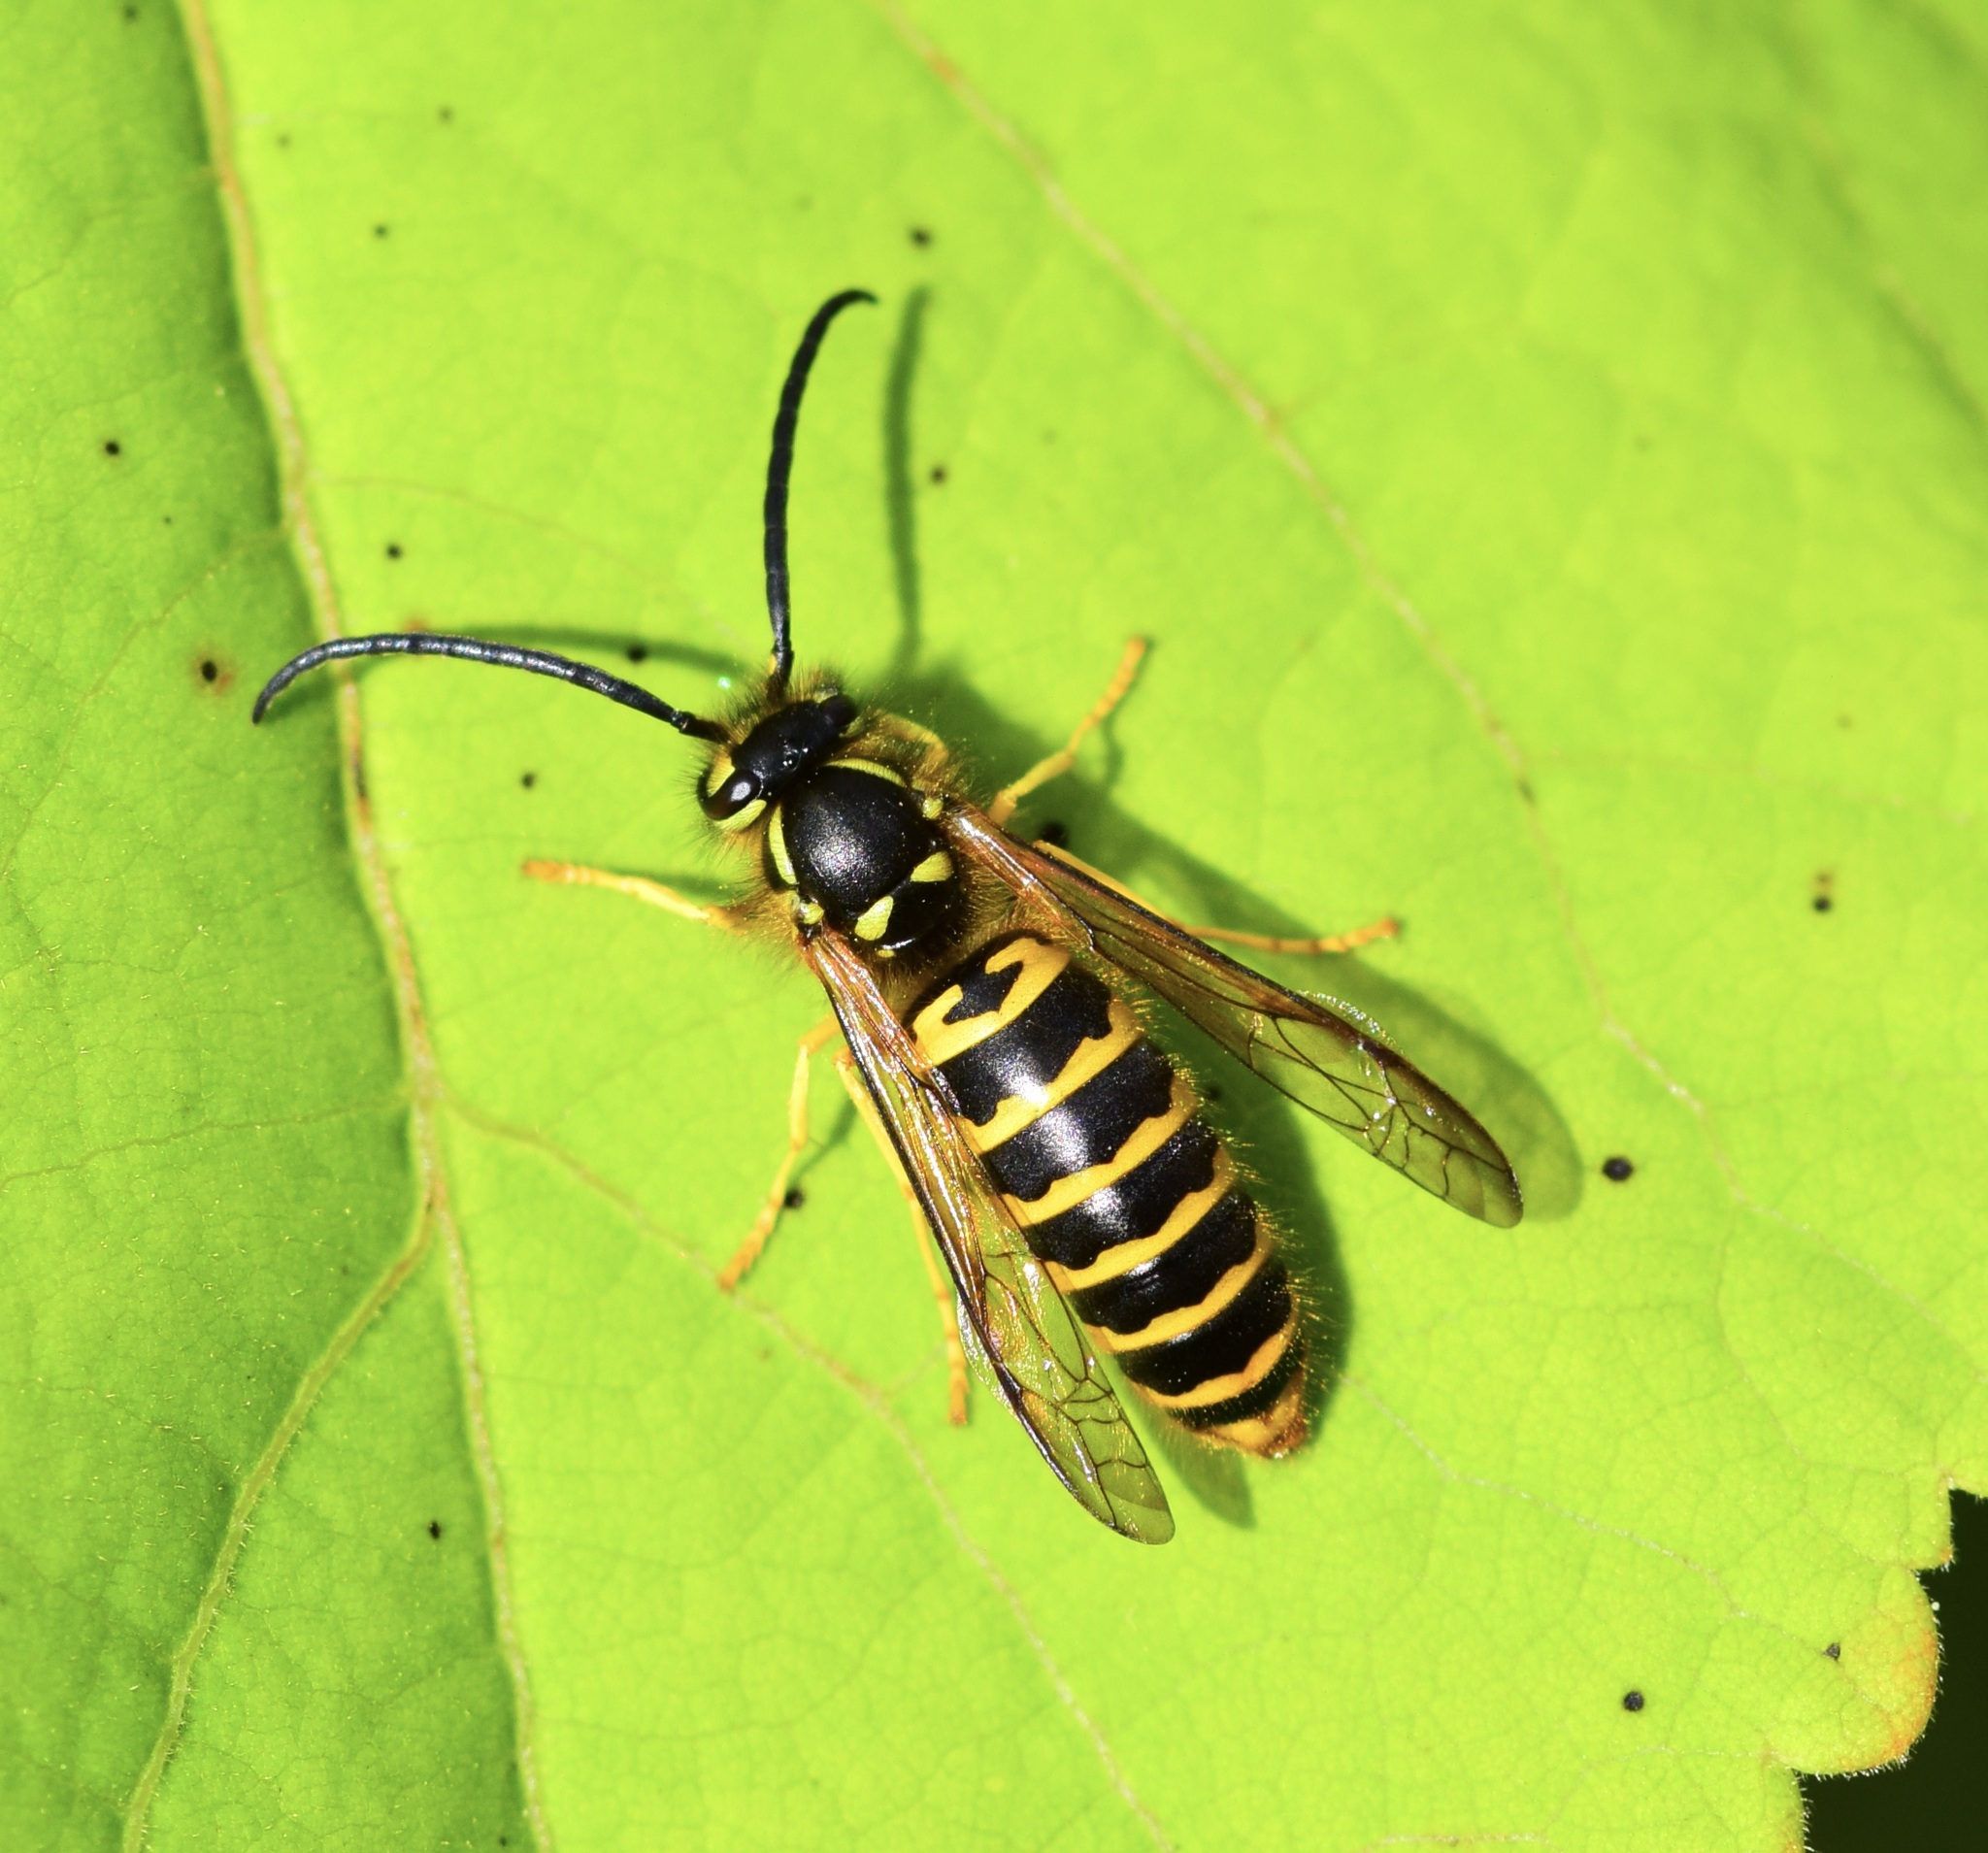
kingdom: Animalia
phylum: Arthropoda
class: Insecta
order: Hymenoptera
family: Vespidae
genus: Vespula
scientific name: Vespula maculifrons
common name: Eastern yellowjacket
